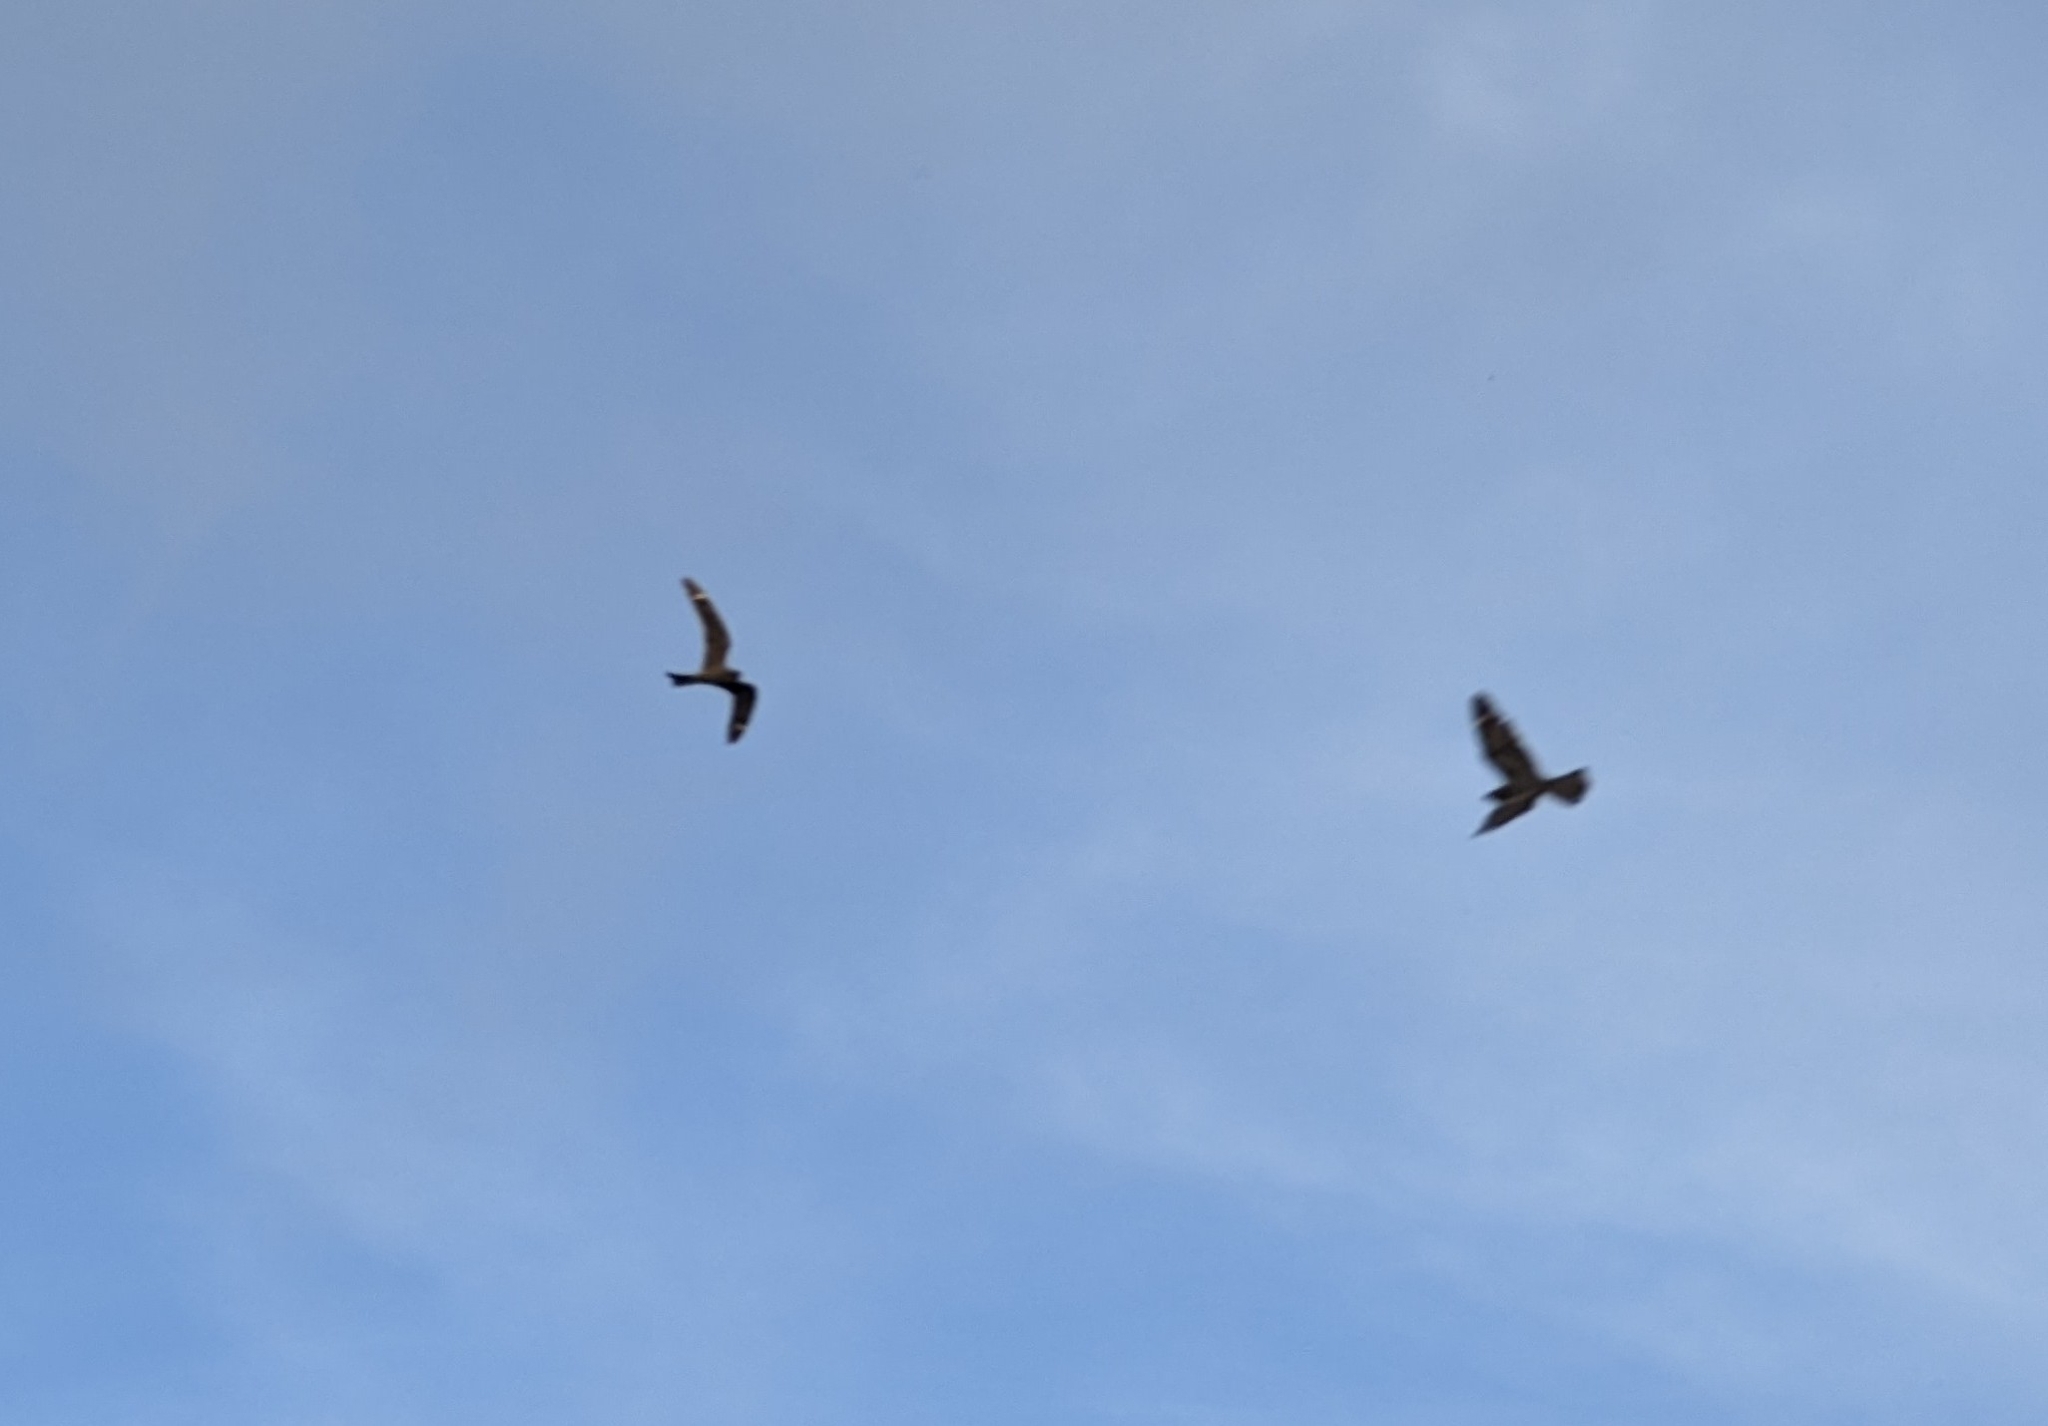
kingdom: Animalia
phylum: Chordata
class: Aves
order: Caprimulgiformes
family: Caprimulgidae
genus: Chordeiles
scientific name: Chordeiles acutipennis
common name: Lesser nighthawk
